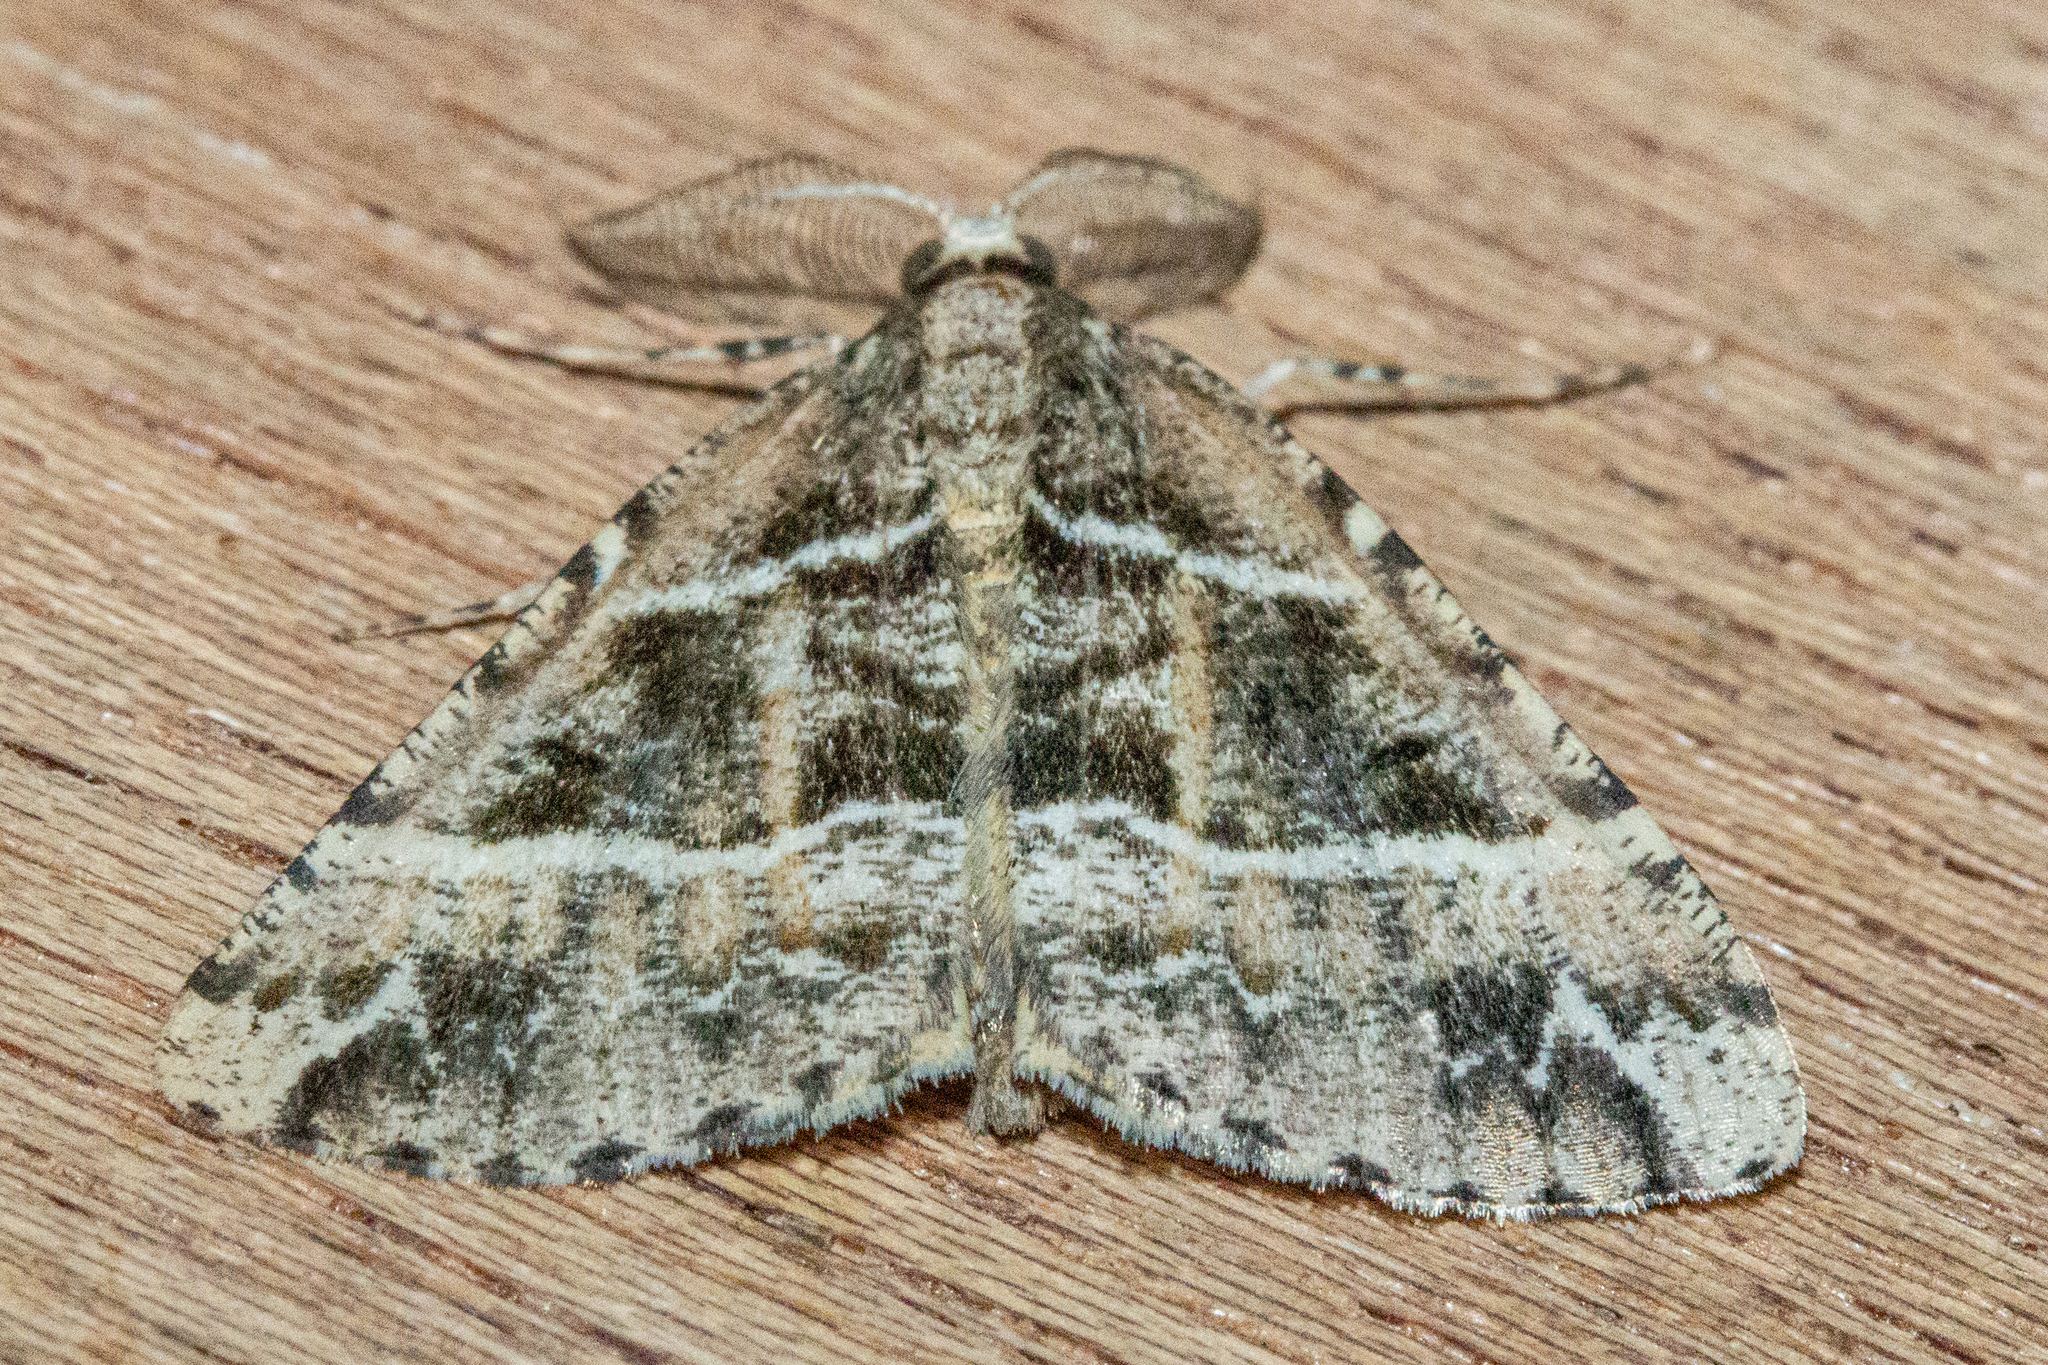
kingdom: Animalia
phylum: Arthropoda
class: Insecta
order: Lepidoptera
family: Geometridae
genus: Pseudocoremia
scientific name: Pseudocoremia melinata
